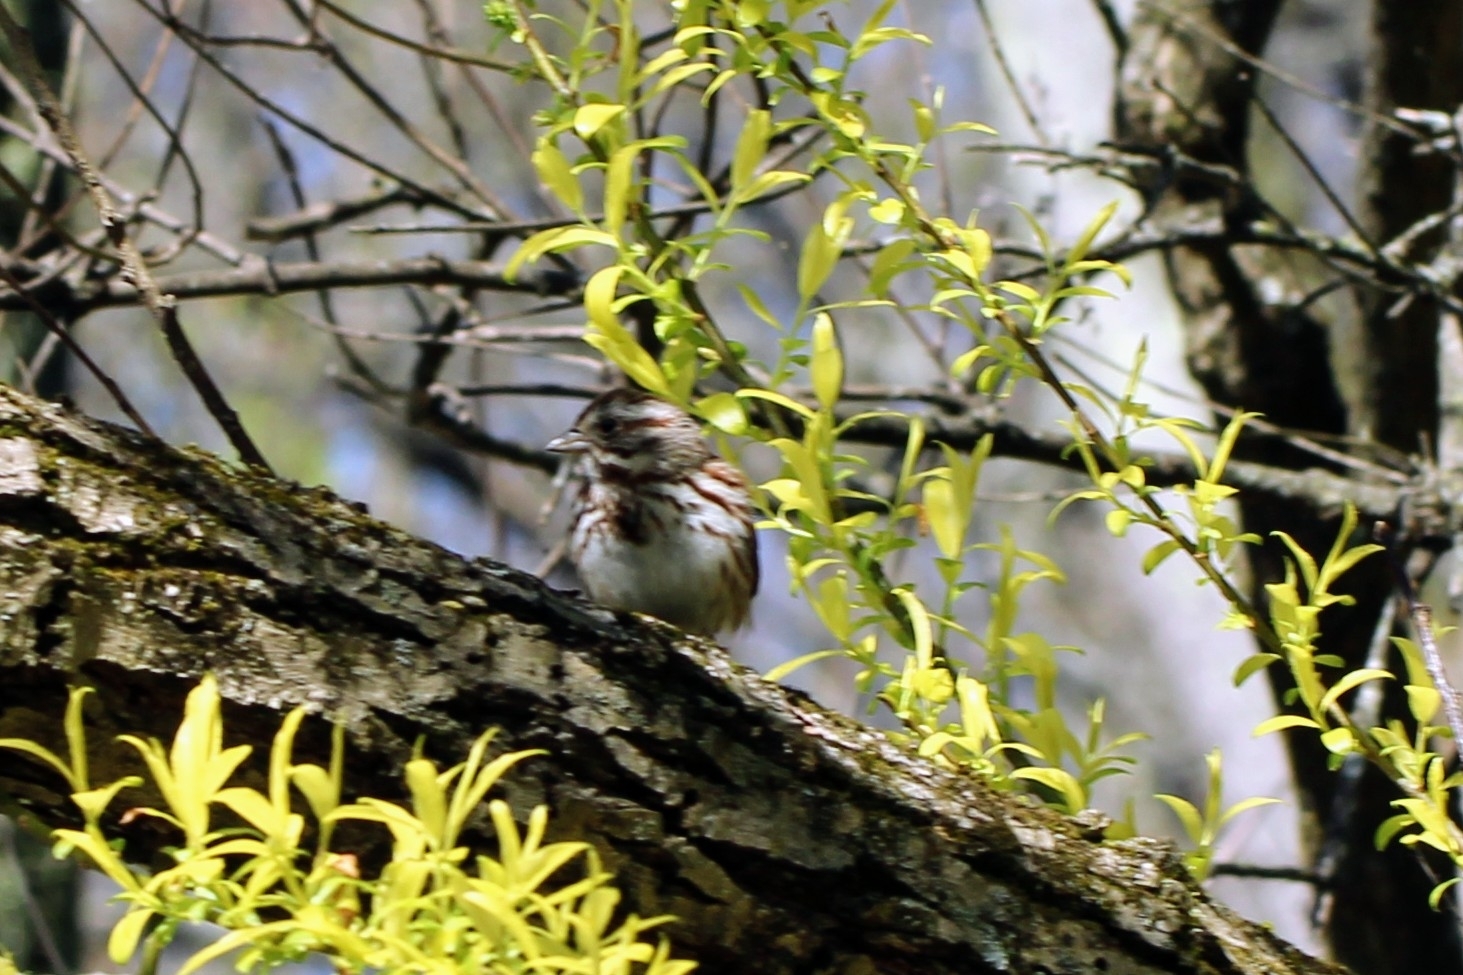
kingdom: Animalia
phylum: Chordata
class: Aves
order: Passeriformes
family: Passerellidae
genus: Melospiza
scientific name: Melospiza melodia
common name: Song sparrow
